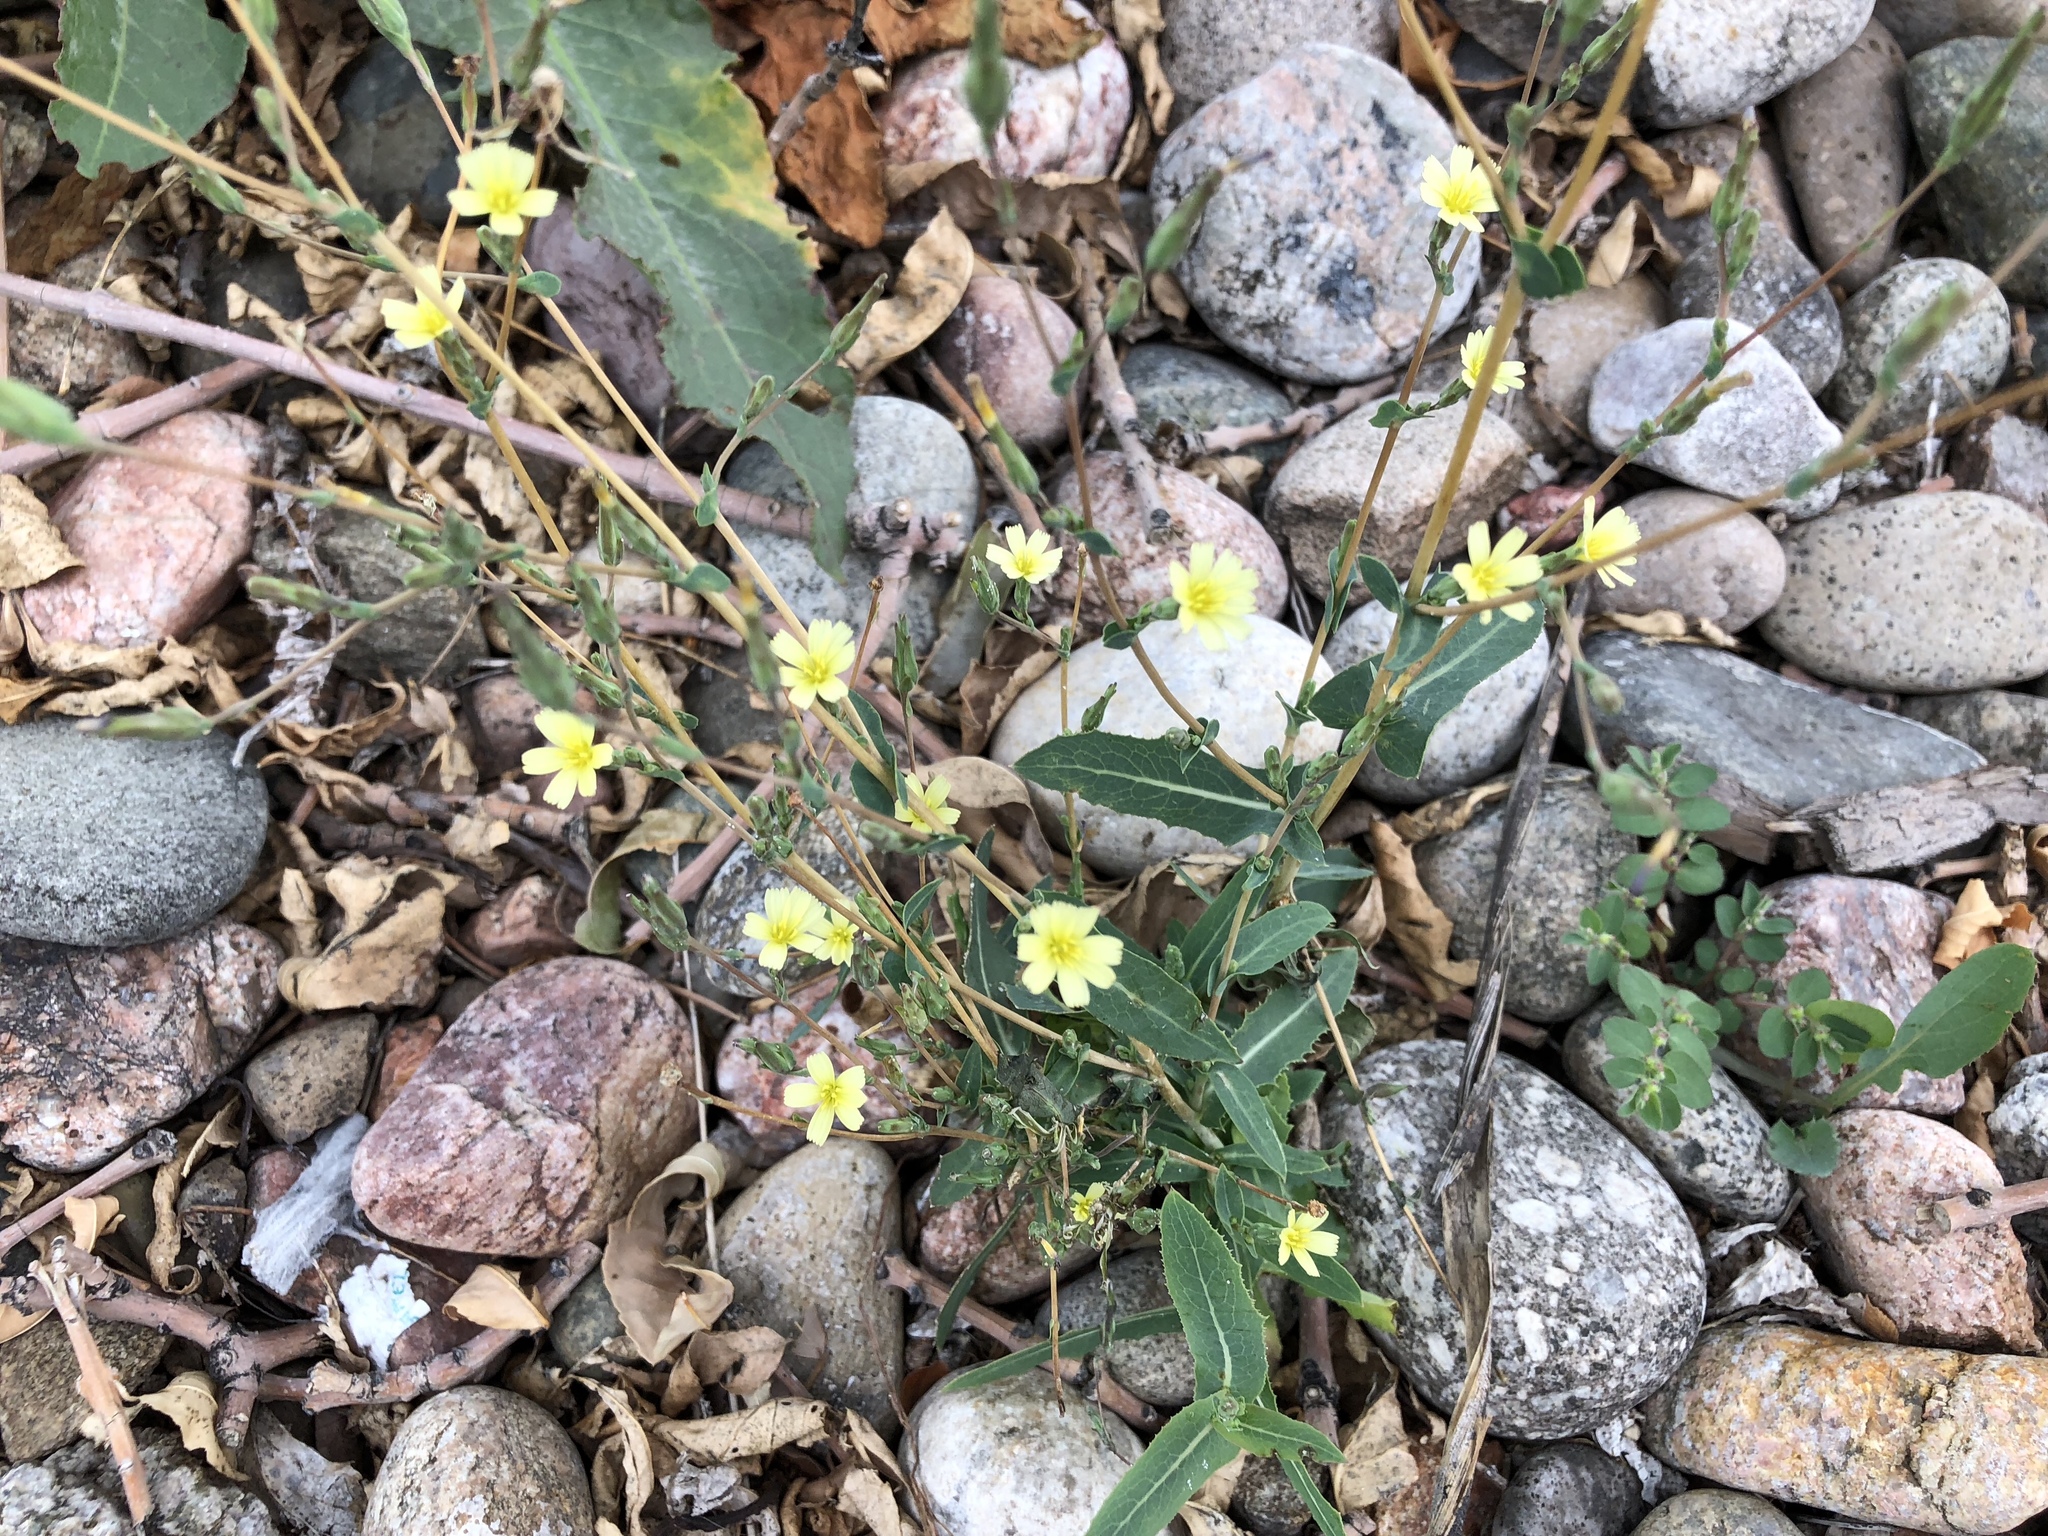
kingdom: Plantae
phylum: Tracheophyta
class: Magnoliopsida
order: Asterales
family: Asteraceae
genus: Lactuca
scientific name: Lactuca serriola
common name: Prickly lettuce
